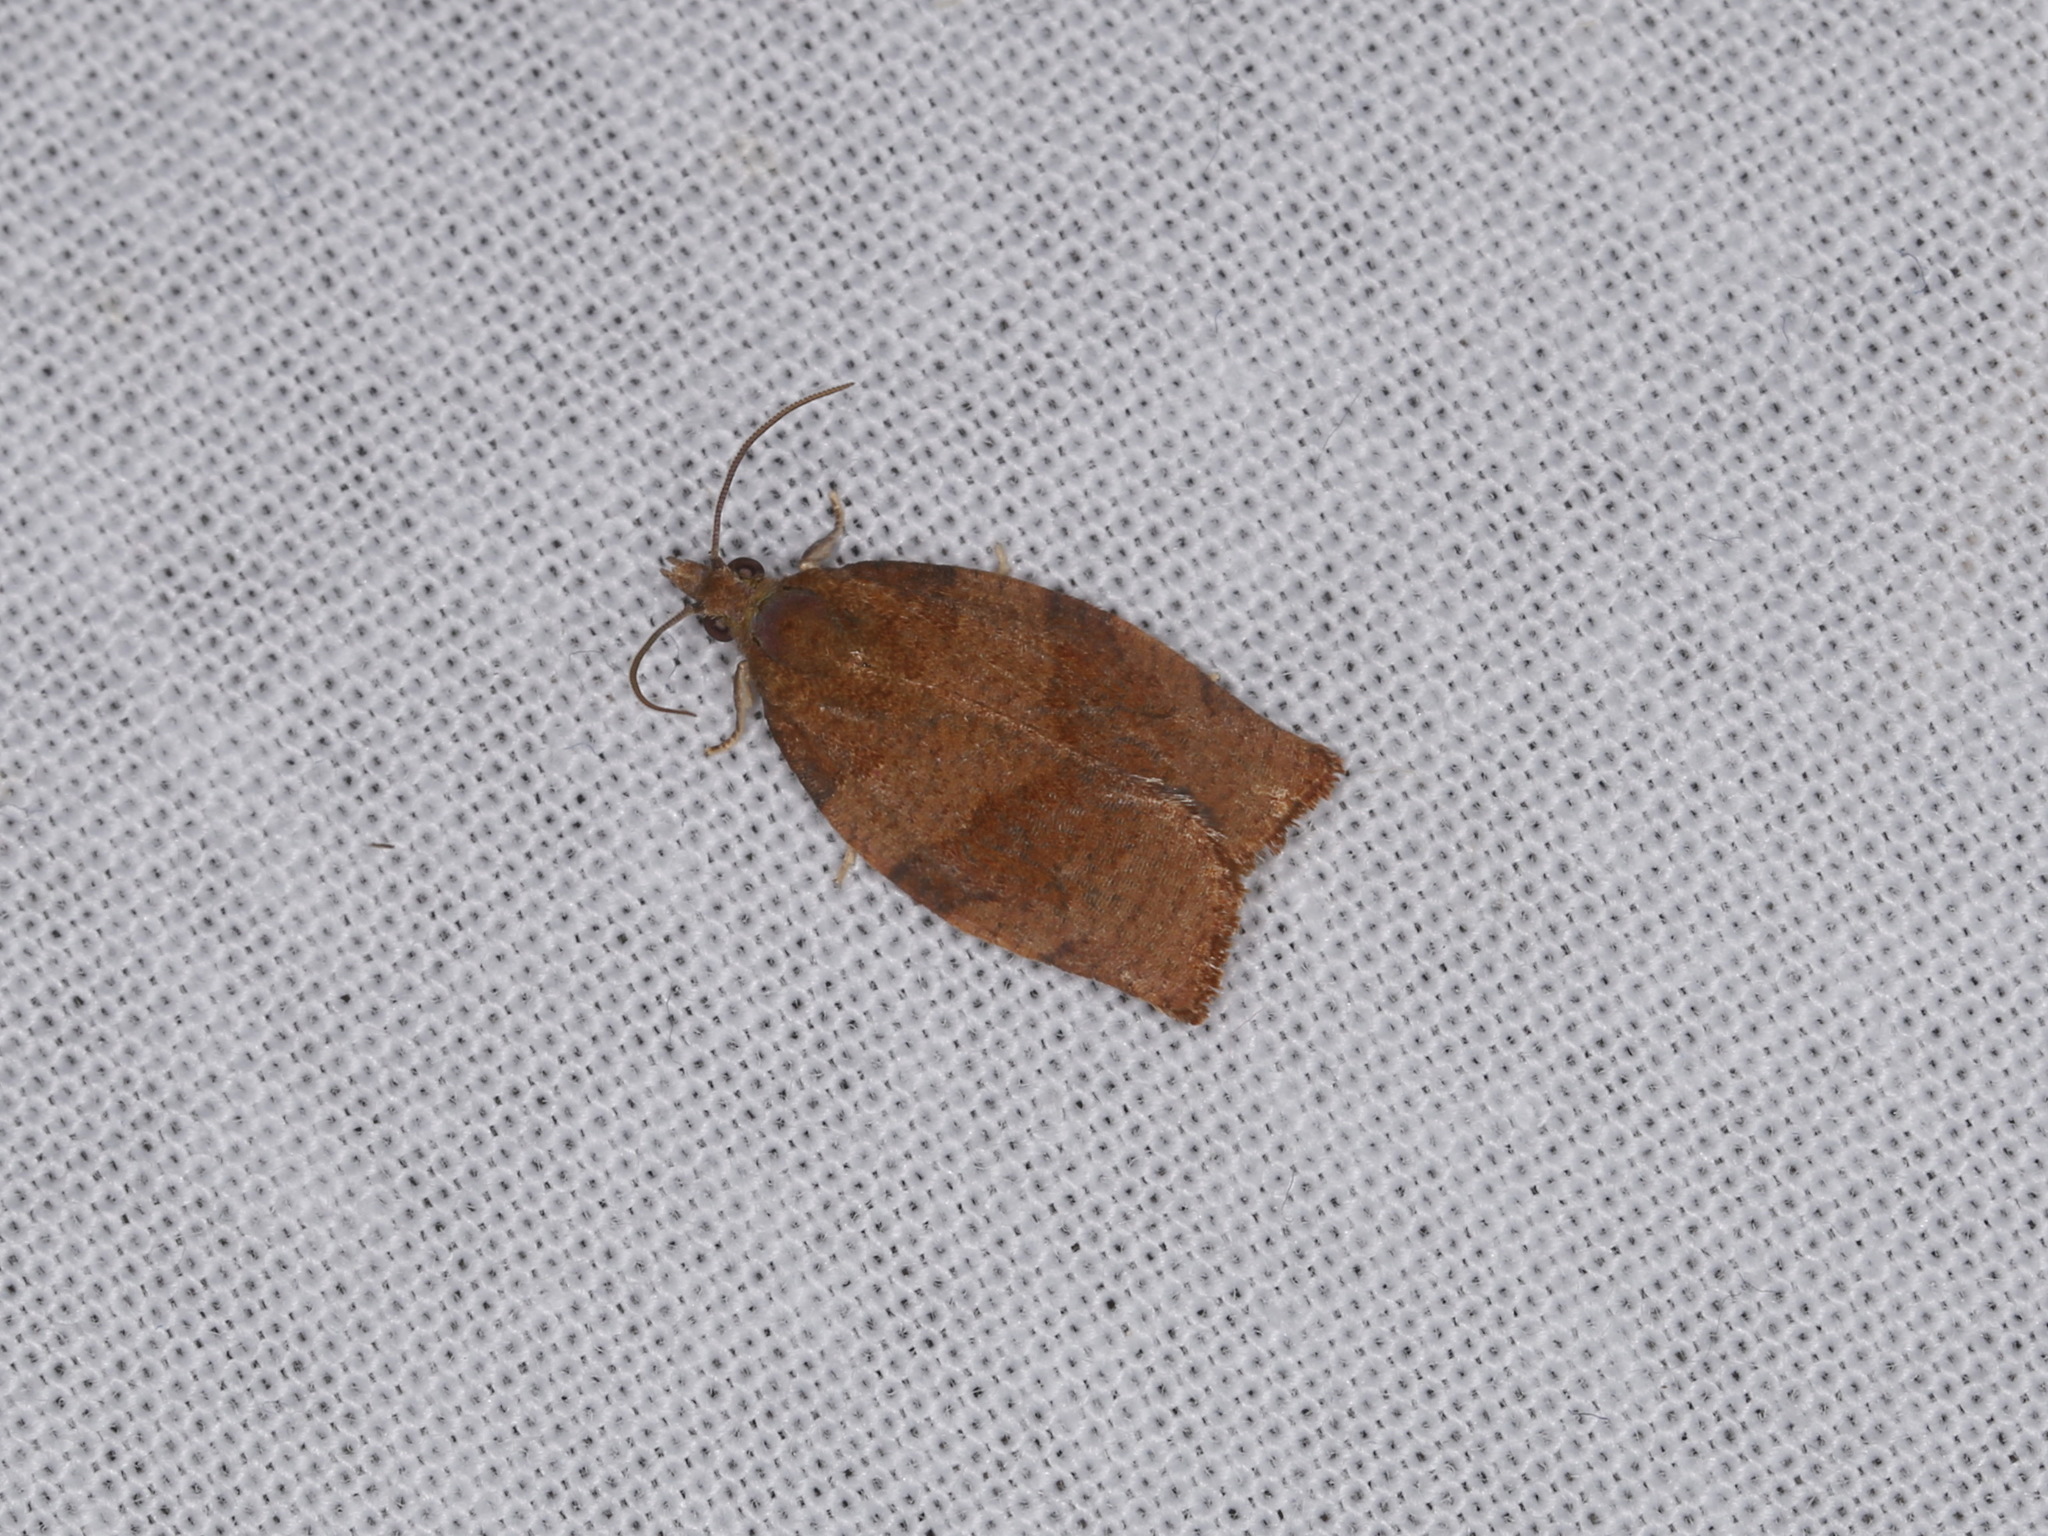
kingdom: Animalia
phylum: Arthropoda
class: Insecta
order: Lepidoptera
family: Tortricidae
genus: Pandemis
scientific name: Pandemis heparana
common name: Dark fruit-tree tortrix
